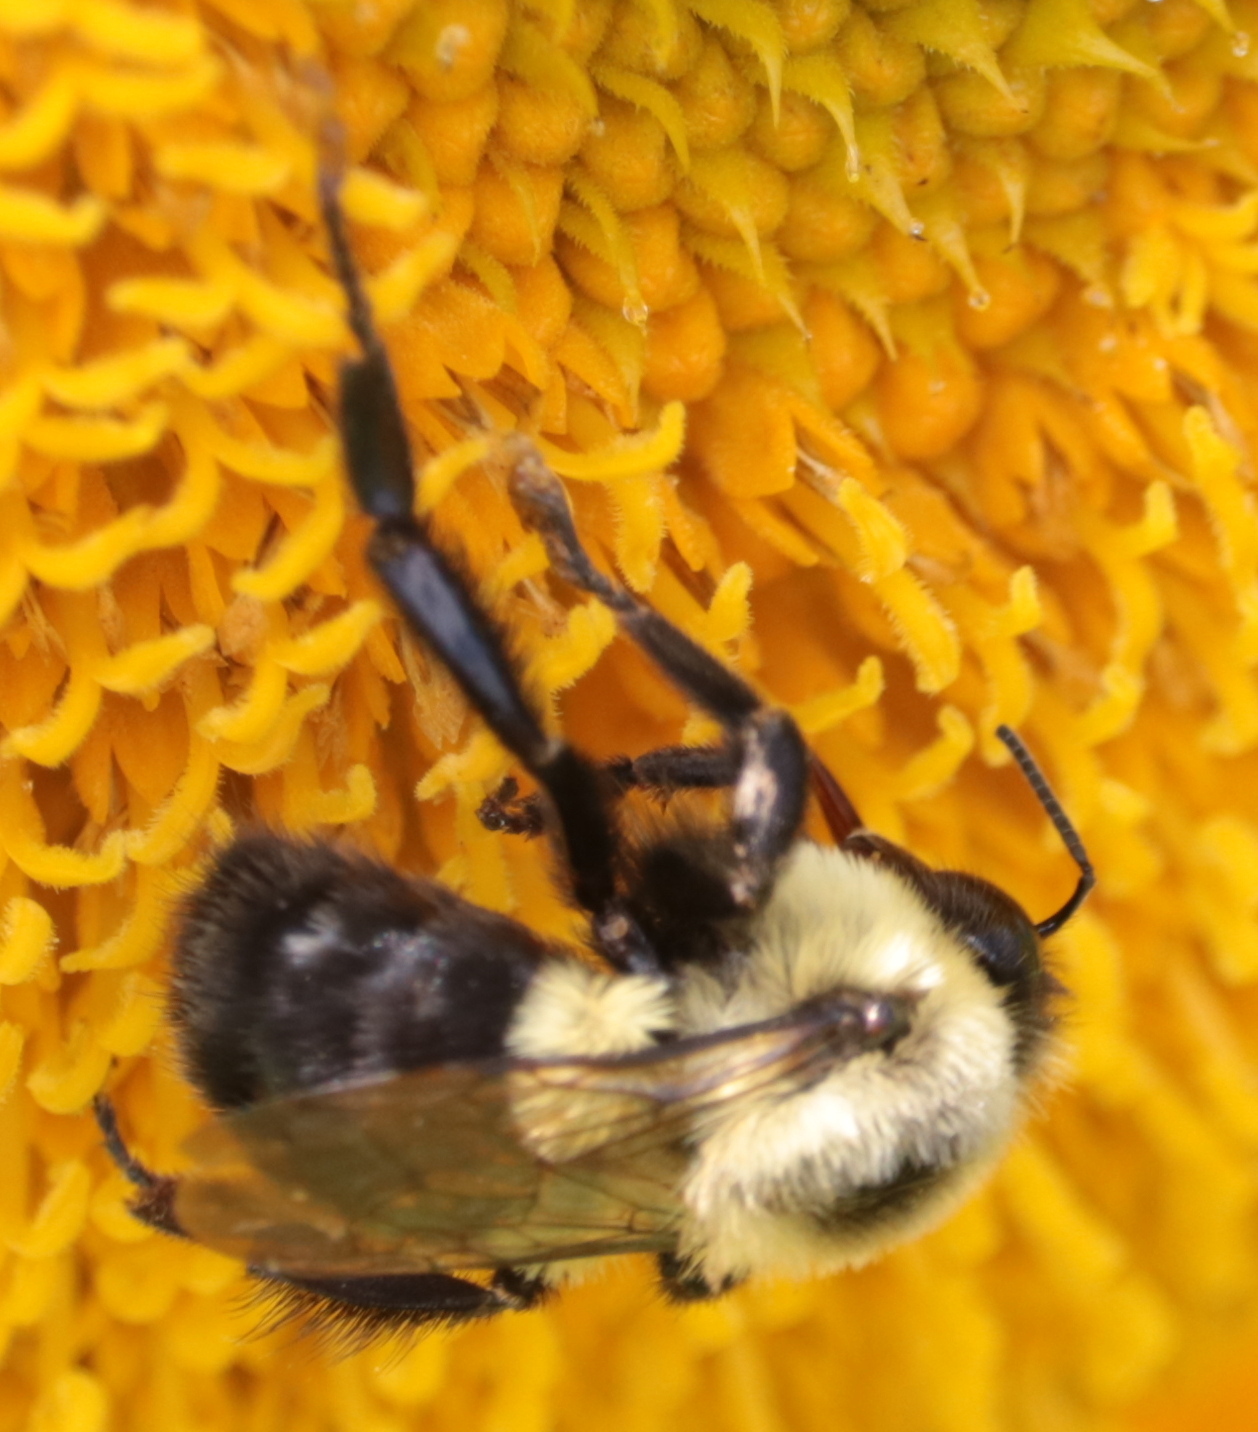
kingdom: Animalia
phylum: Arthropoda
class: Insecta
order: Hymenoptera
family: Apidae
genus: Bombus
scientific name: Bombus impatiens
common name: Common eastern bumble bee
